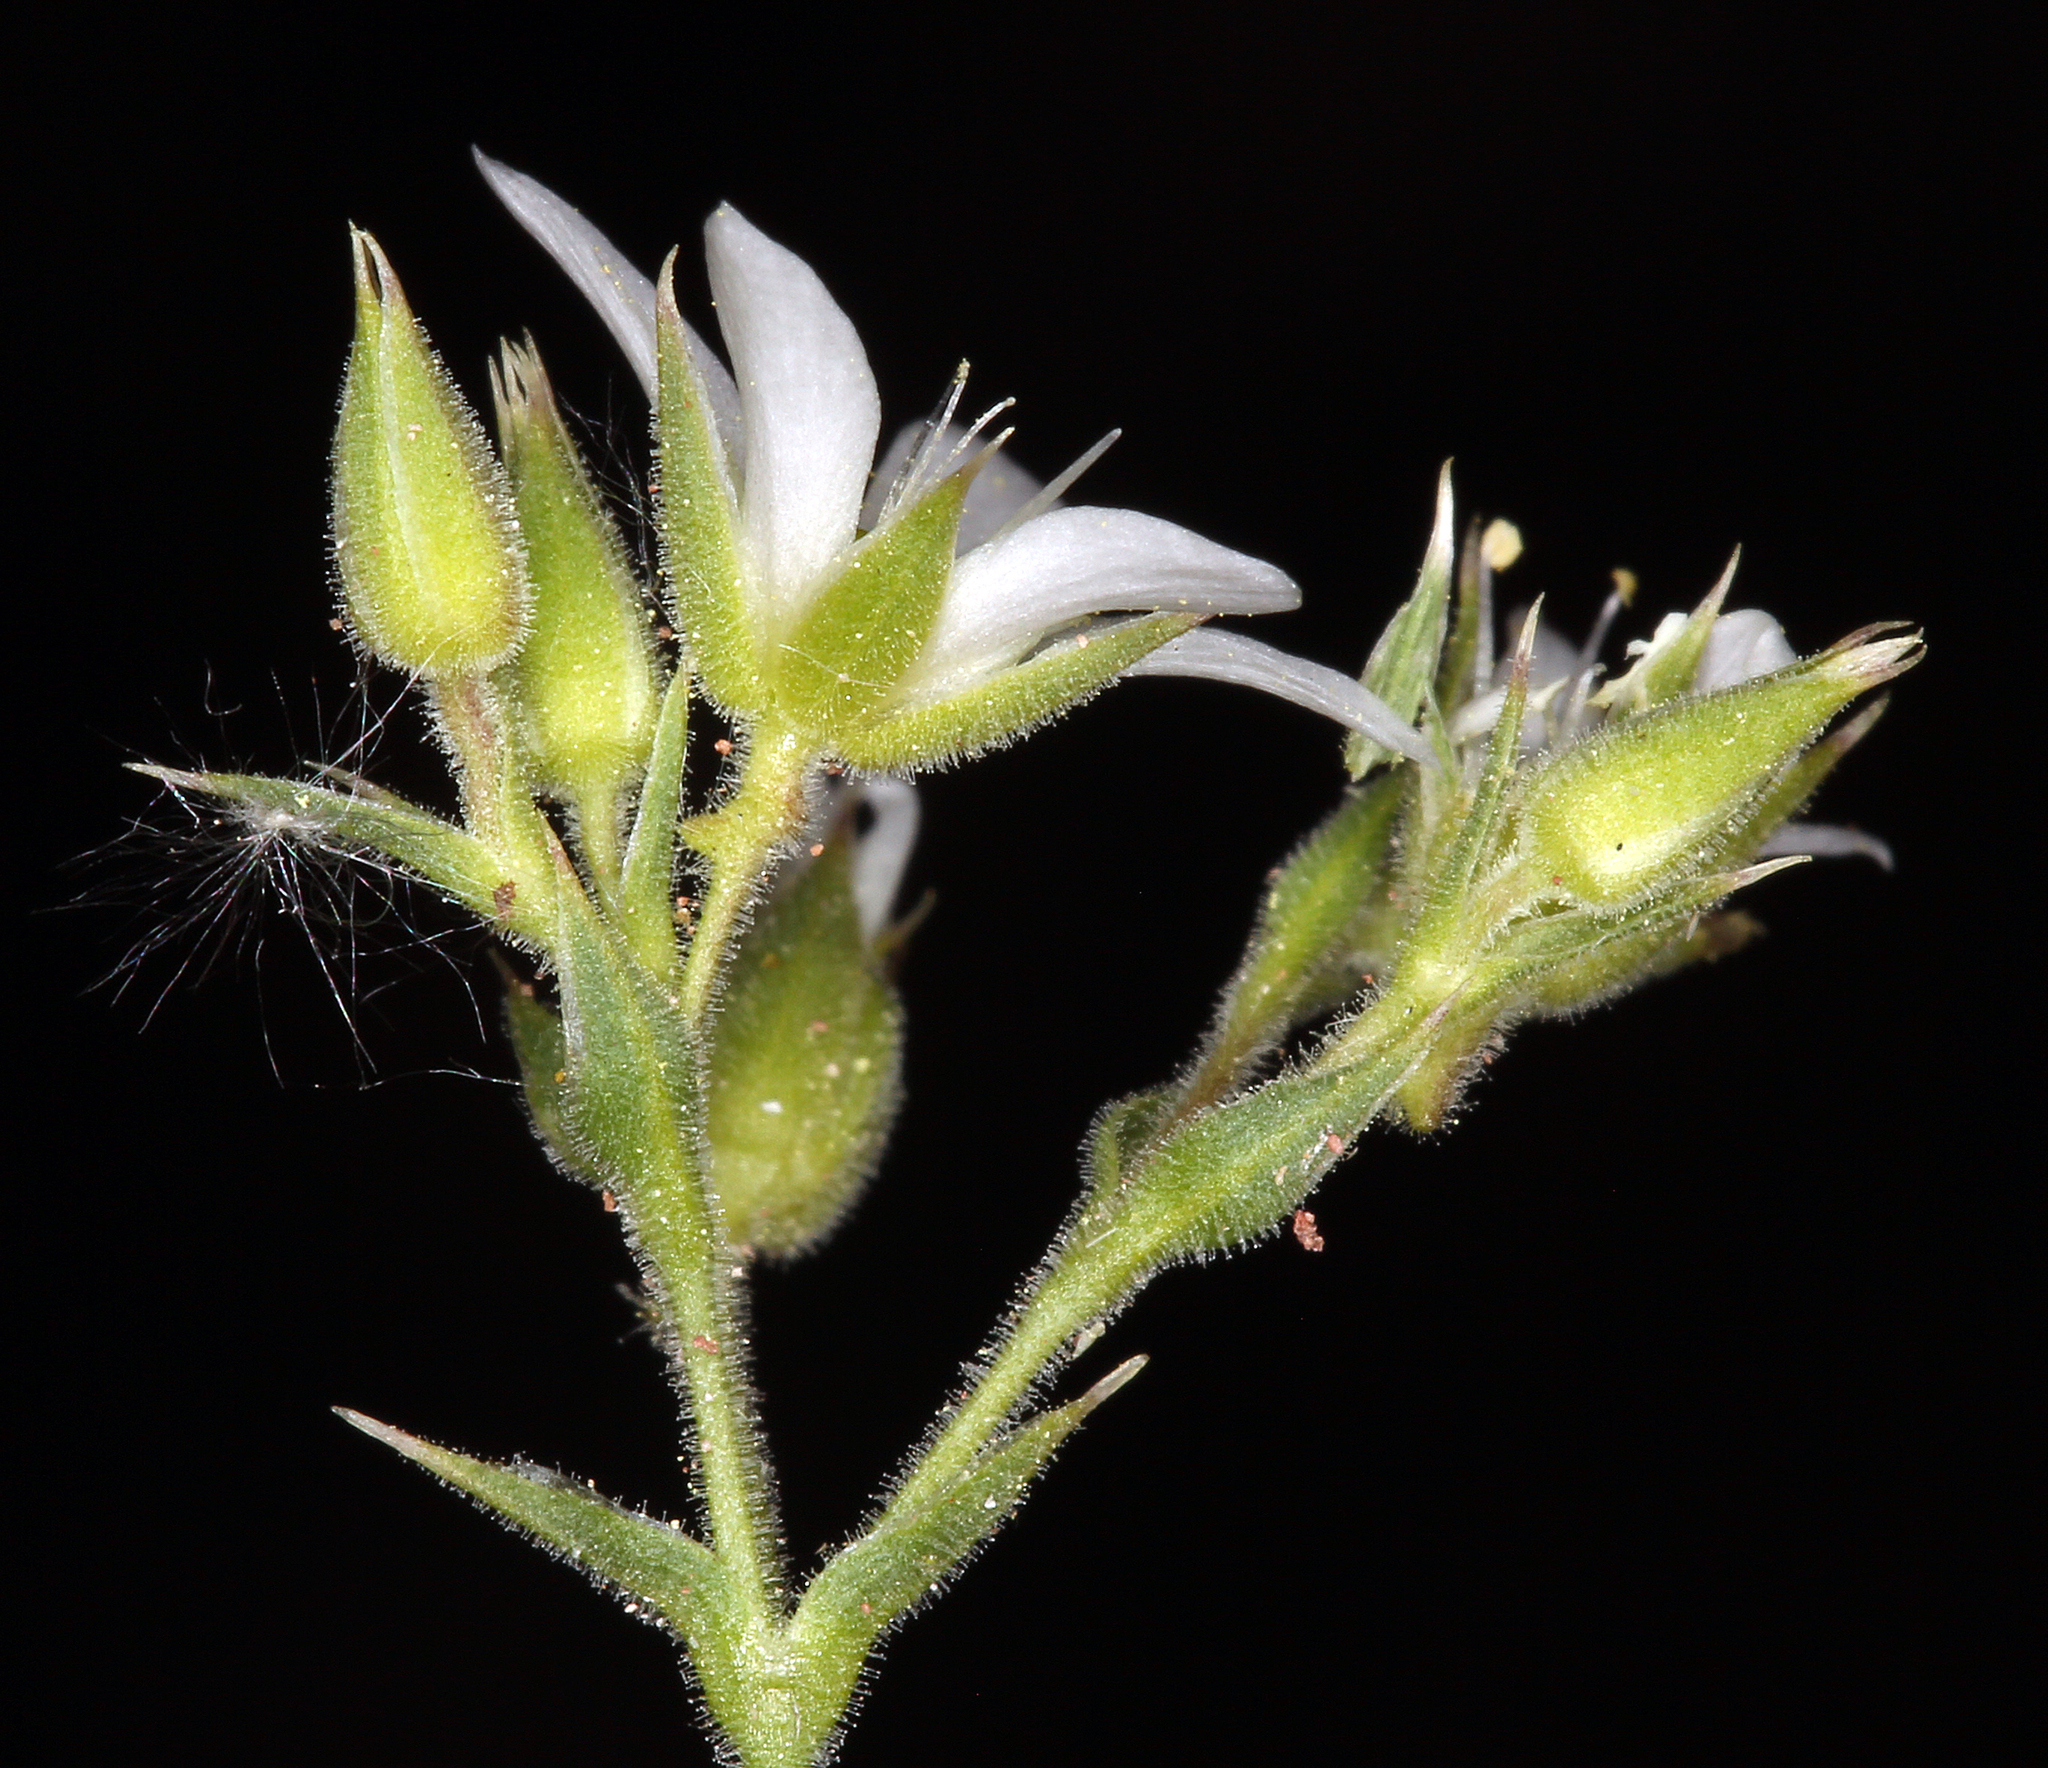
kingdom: Plantae
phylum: Tracheophyta
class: Magnoliopsida
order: Caryophyllales
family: Caryophyllaceae
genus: Sabulina
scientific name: Sabulina nuttallii
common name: Nuttall's stitchwort
